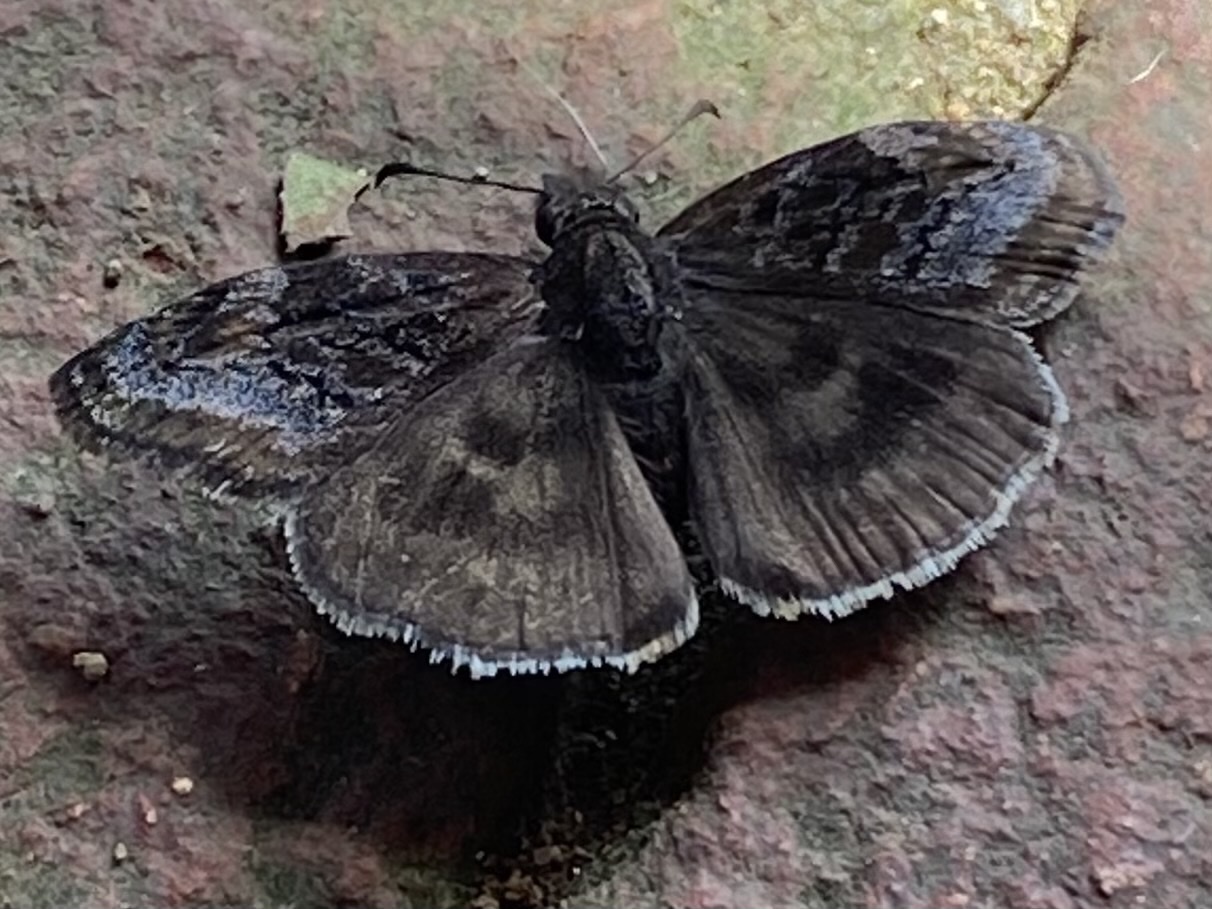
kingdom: Animalia
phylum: Arthropoda
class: Insecta
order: Lepidoptera
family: Hesperiidae
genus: Gesta
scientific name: Gesta gesta
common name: Gesta duskywing
